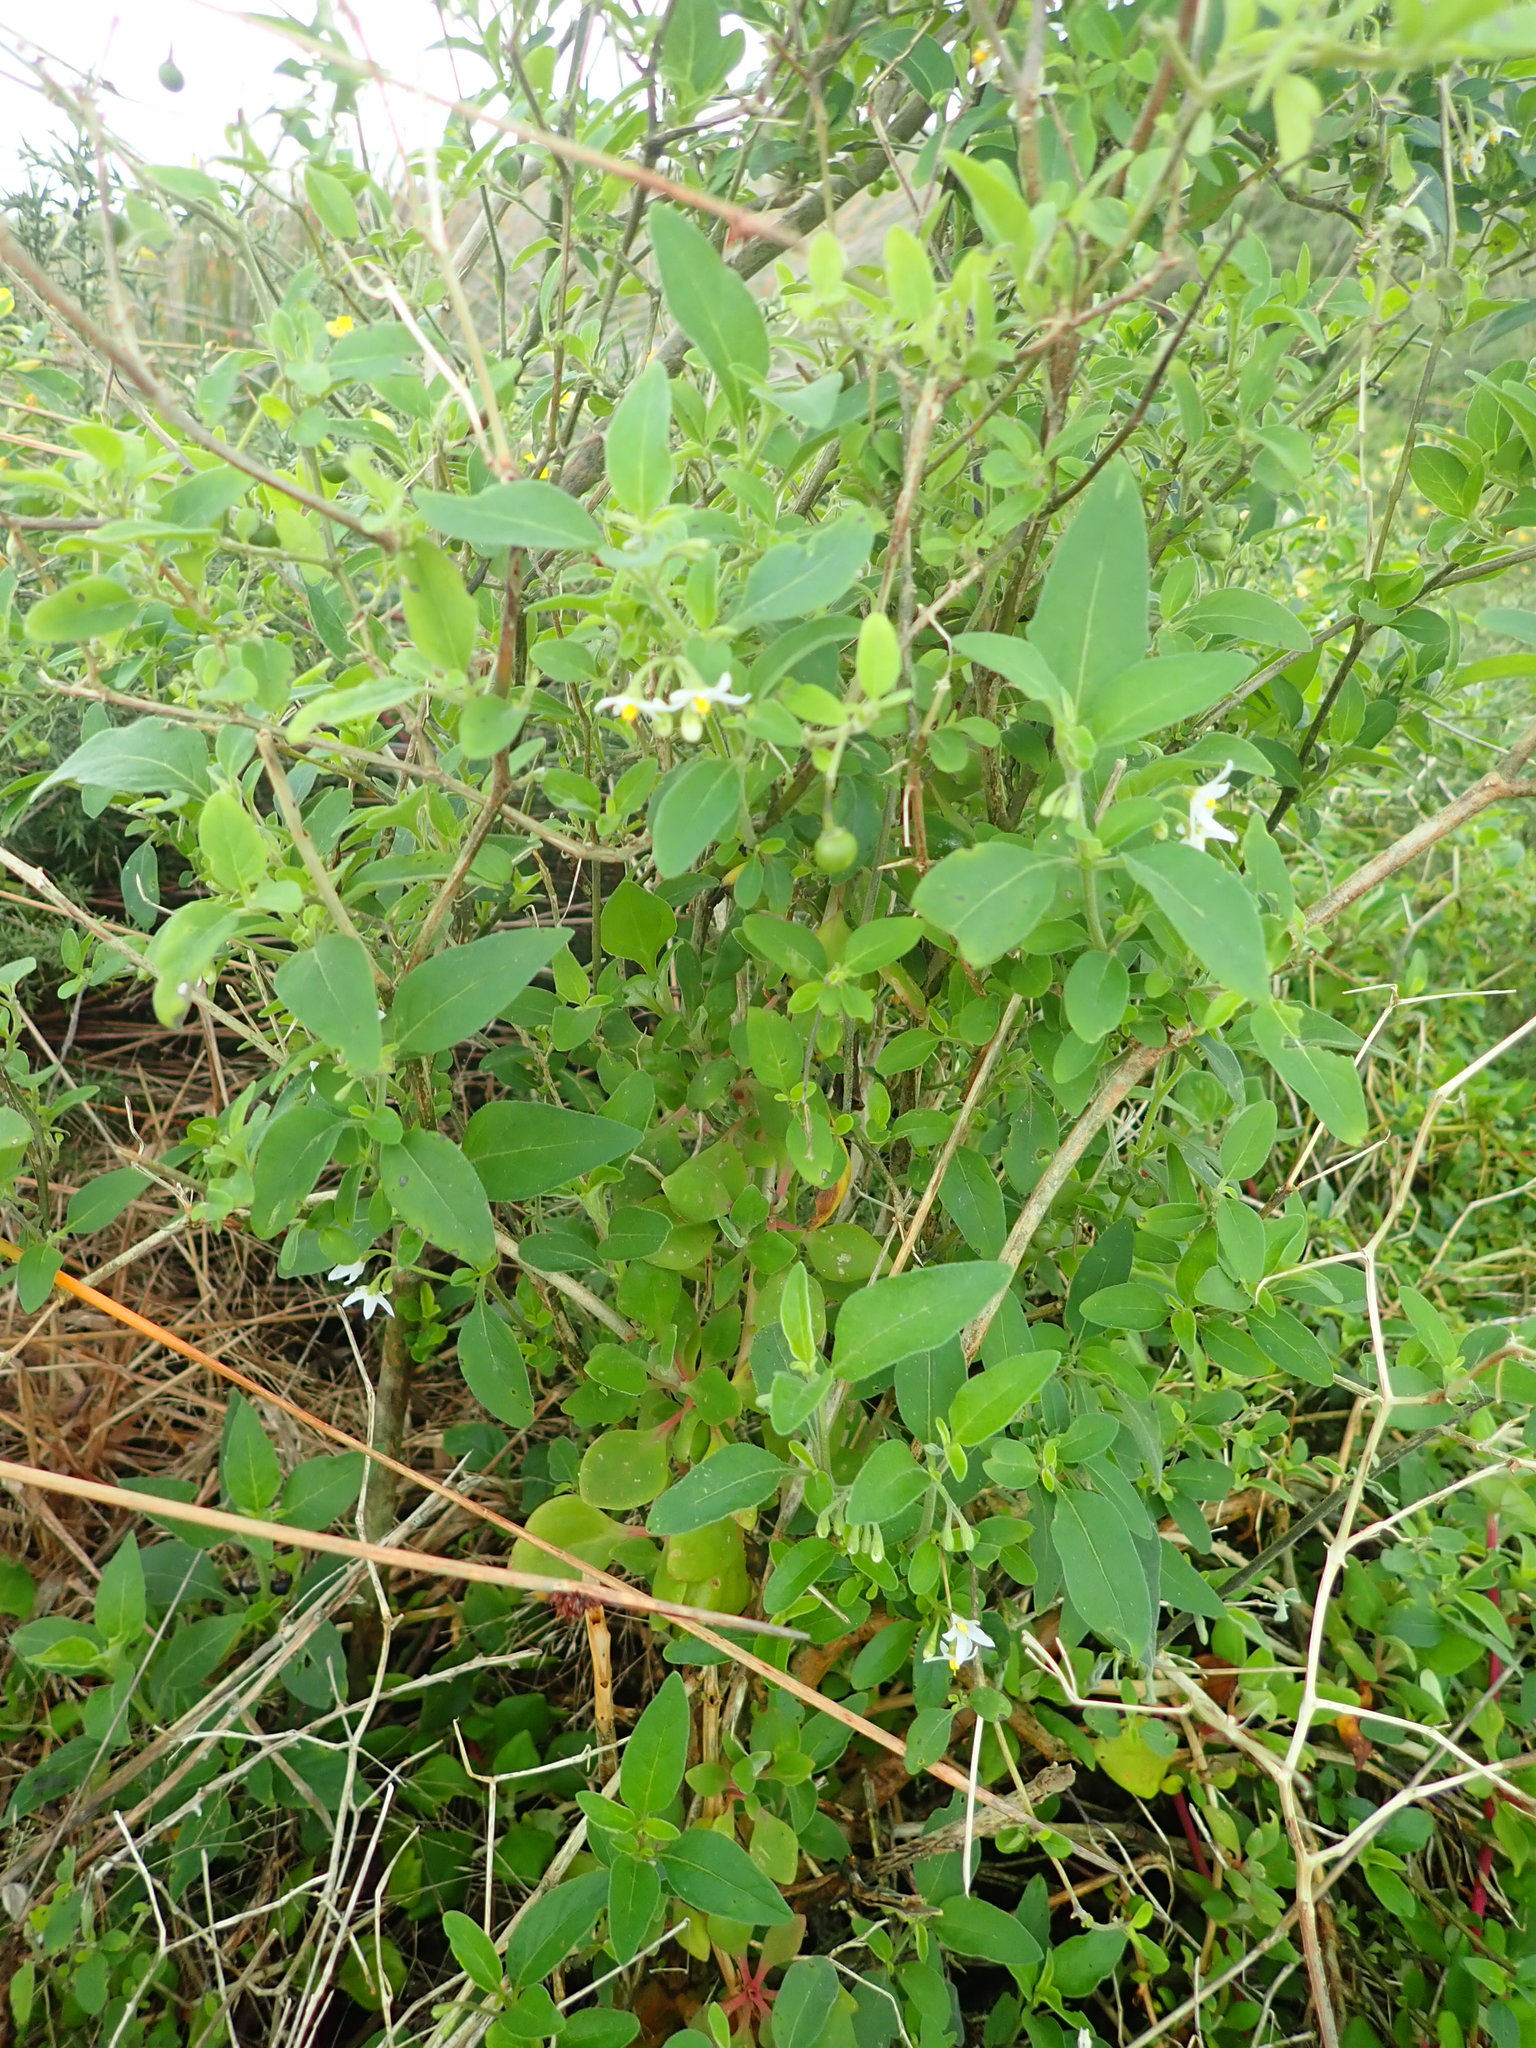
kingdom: Plantae
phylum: Tracheophyta
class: Magnoliopsida
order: Solanales
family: Solanaceae
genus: Solanum
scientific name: Solanum chenopodioides
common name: Tall nightshade
